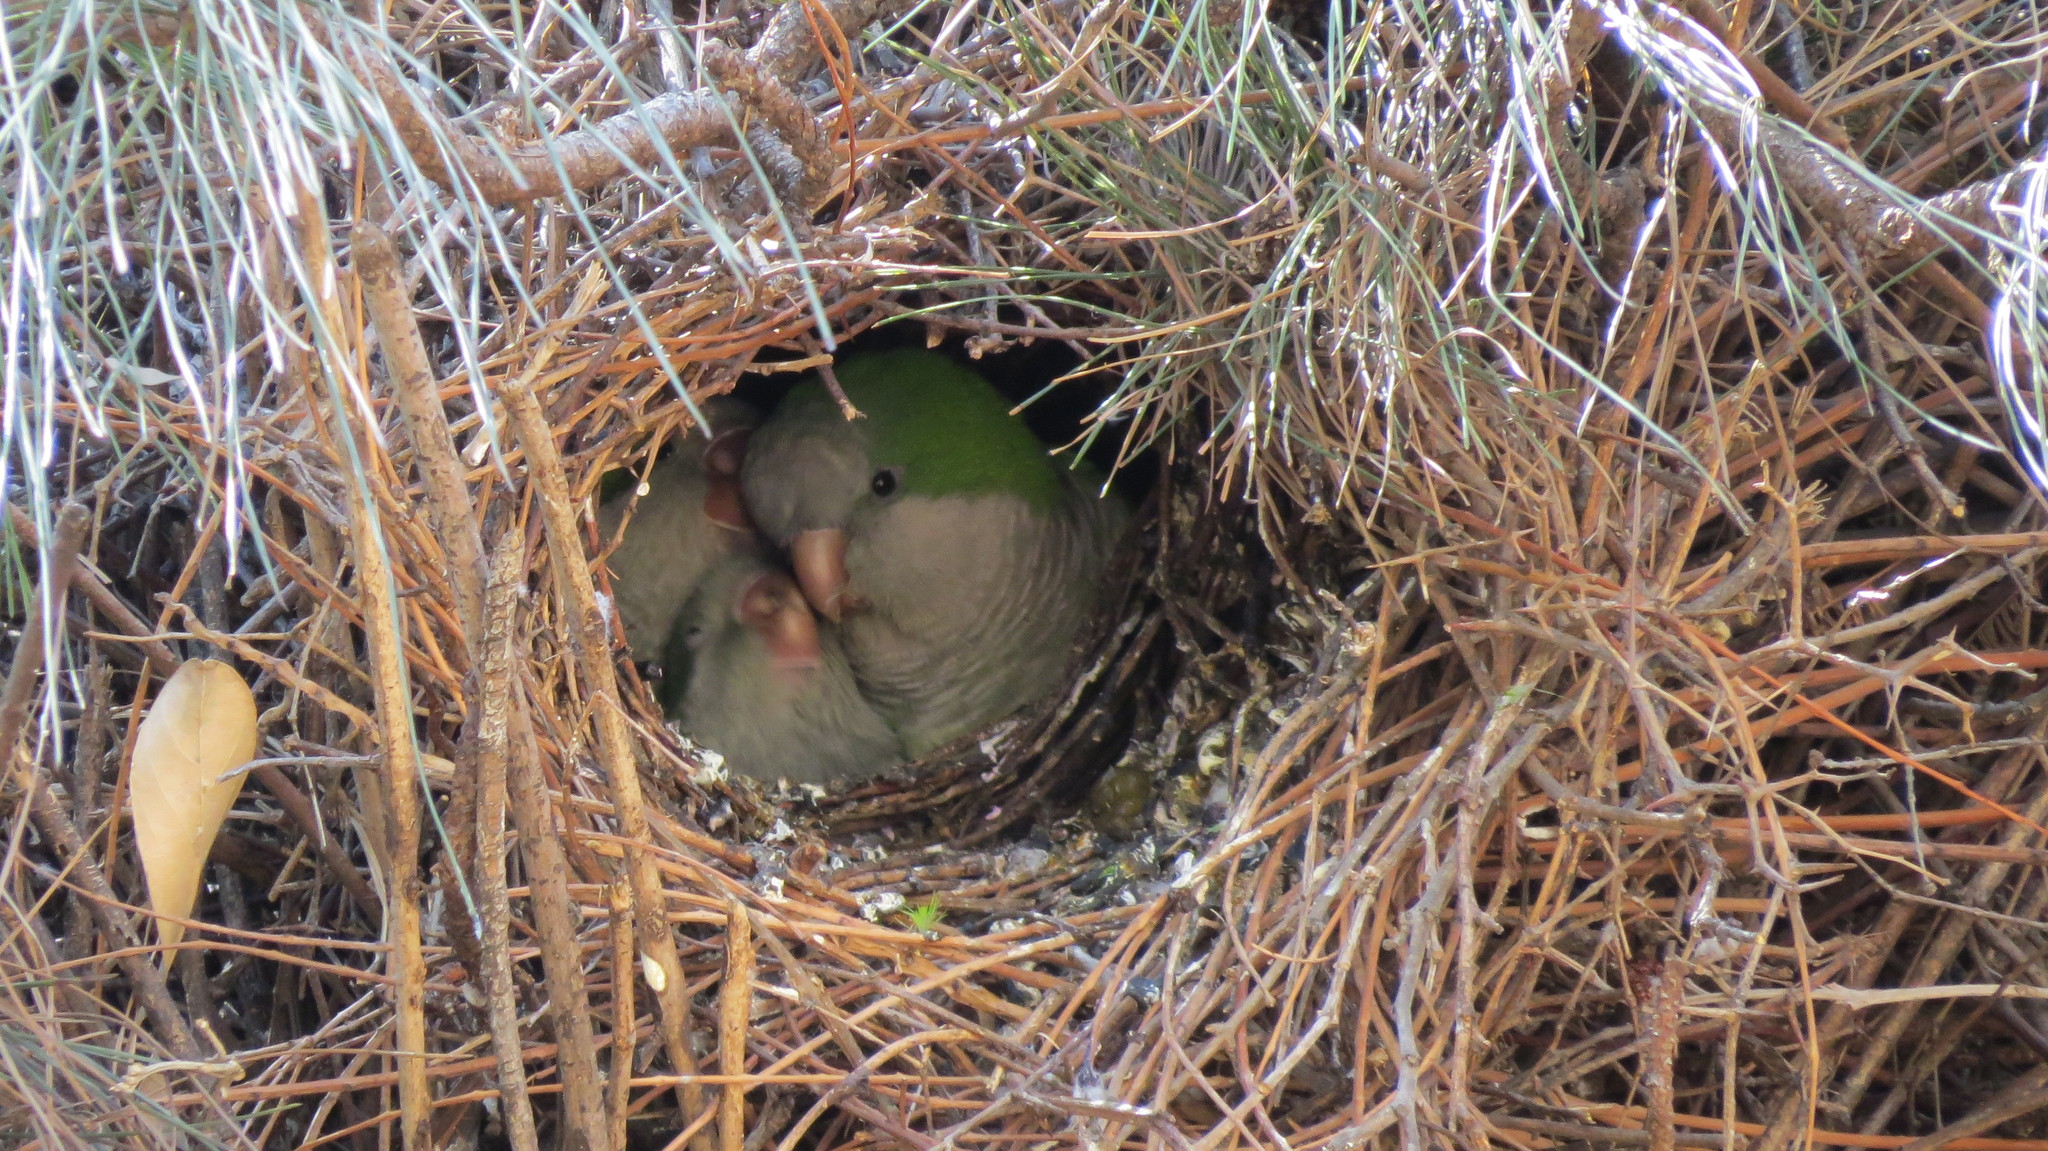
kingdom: Animalia
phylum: Chordata
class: Aves
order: Psittaciformes
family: Psittacidae
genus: Myiopsitta
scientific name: Myiopsitta monachus
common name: Monk parakeet
